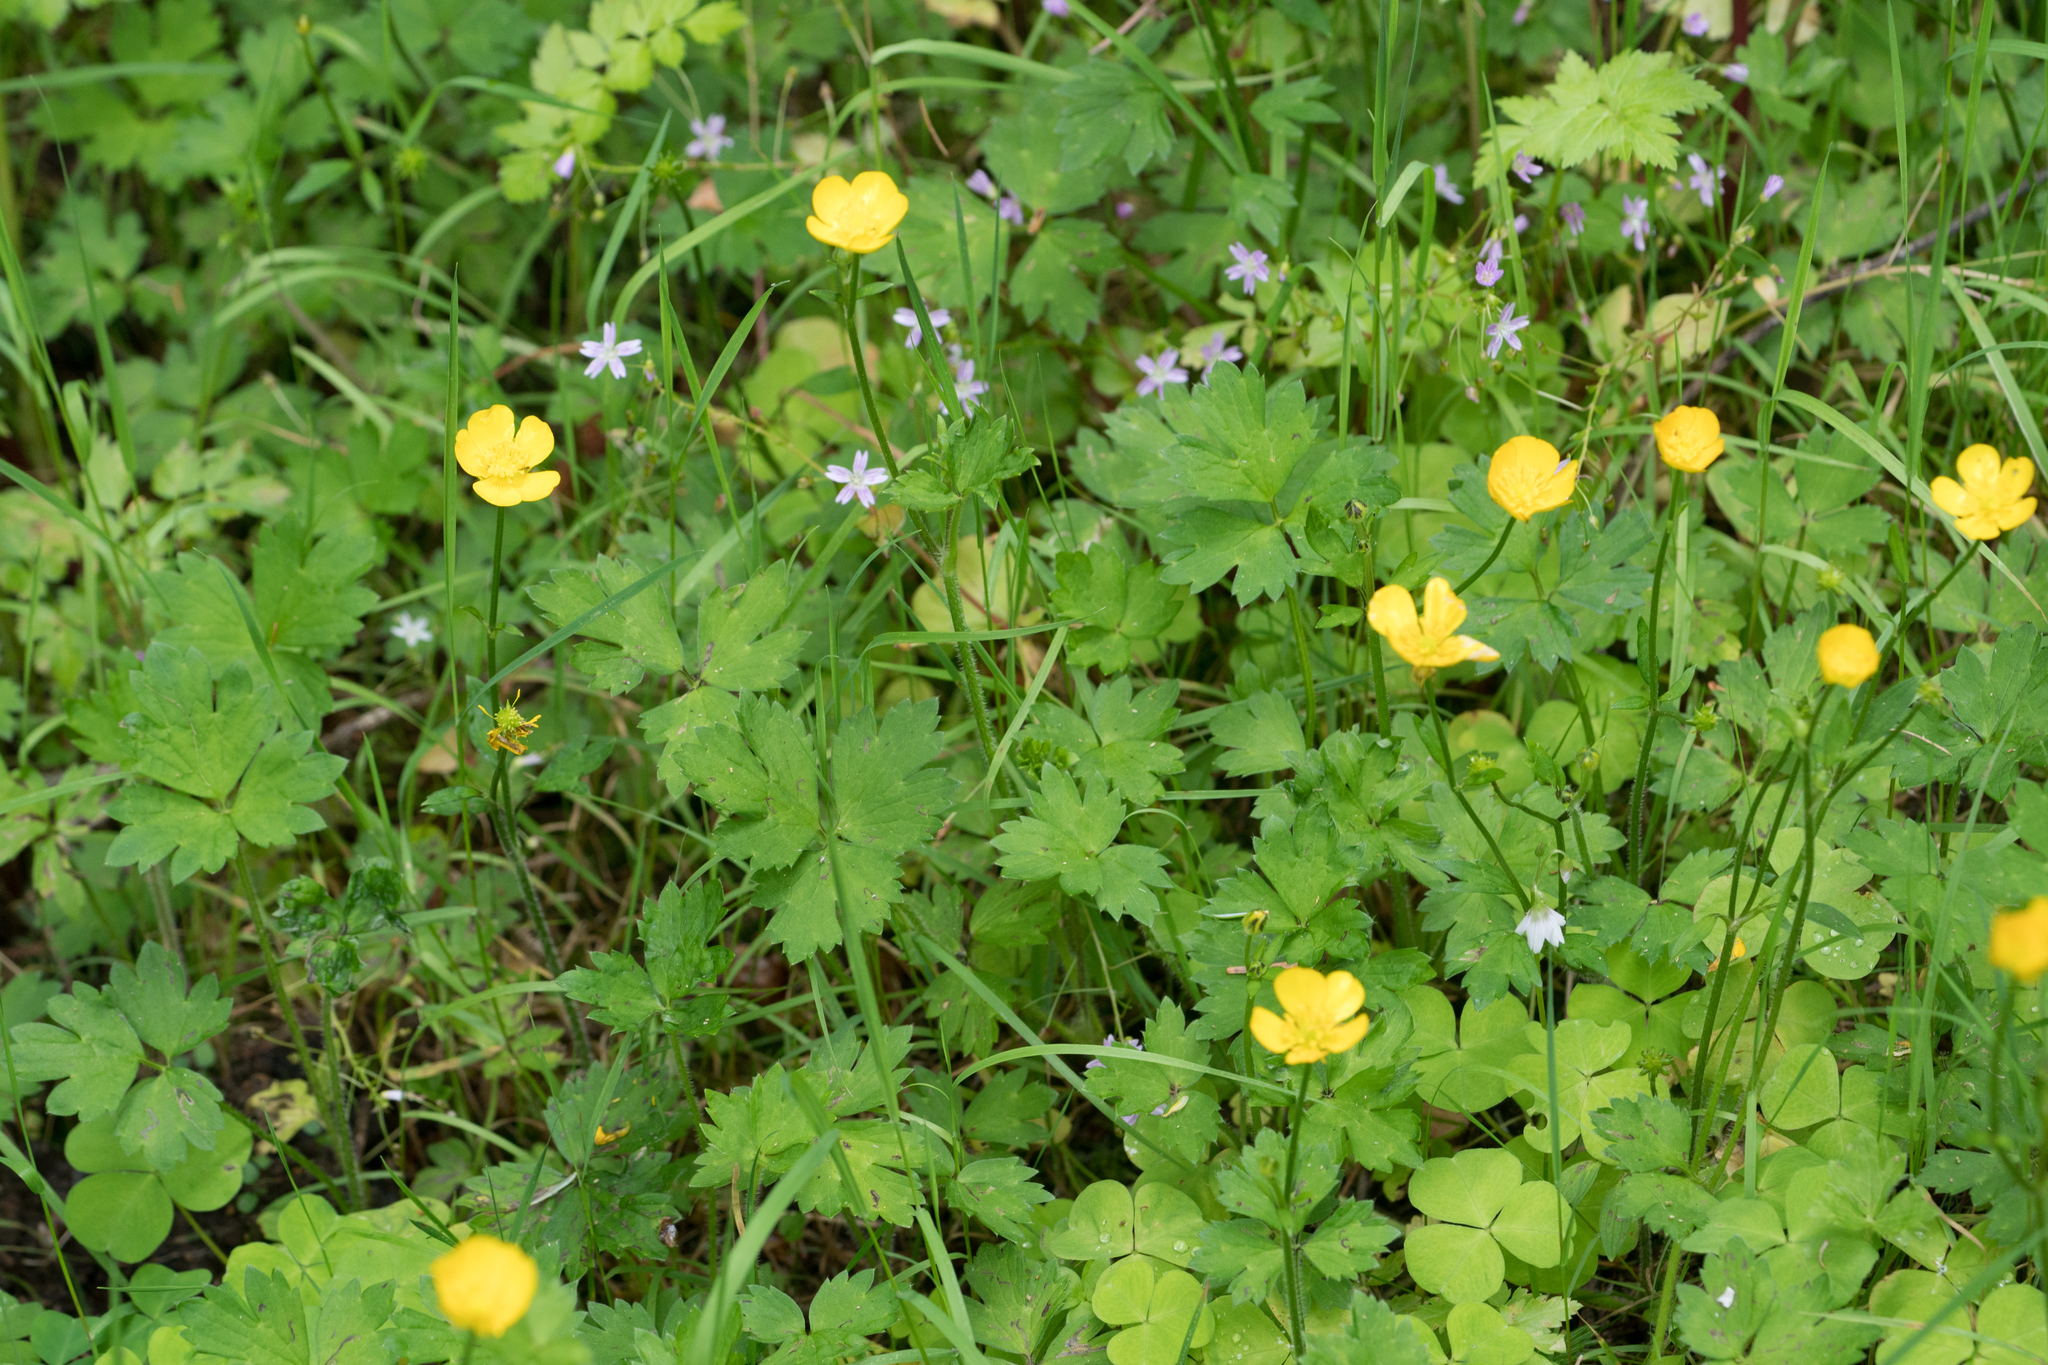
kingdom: Plantae
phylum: Tracheophyta
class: Magnoliopsida
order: Ranunculales
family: Ranunculaceae
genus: Ranunculus
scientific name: Ranunculus repens
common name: Creeping buttercup
